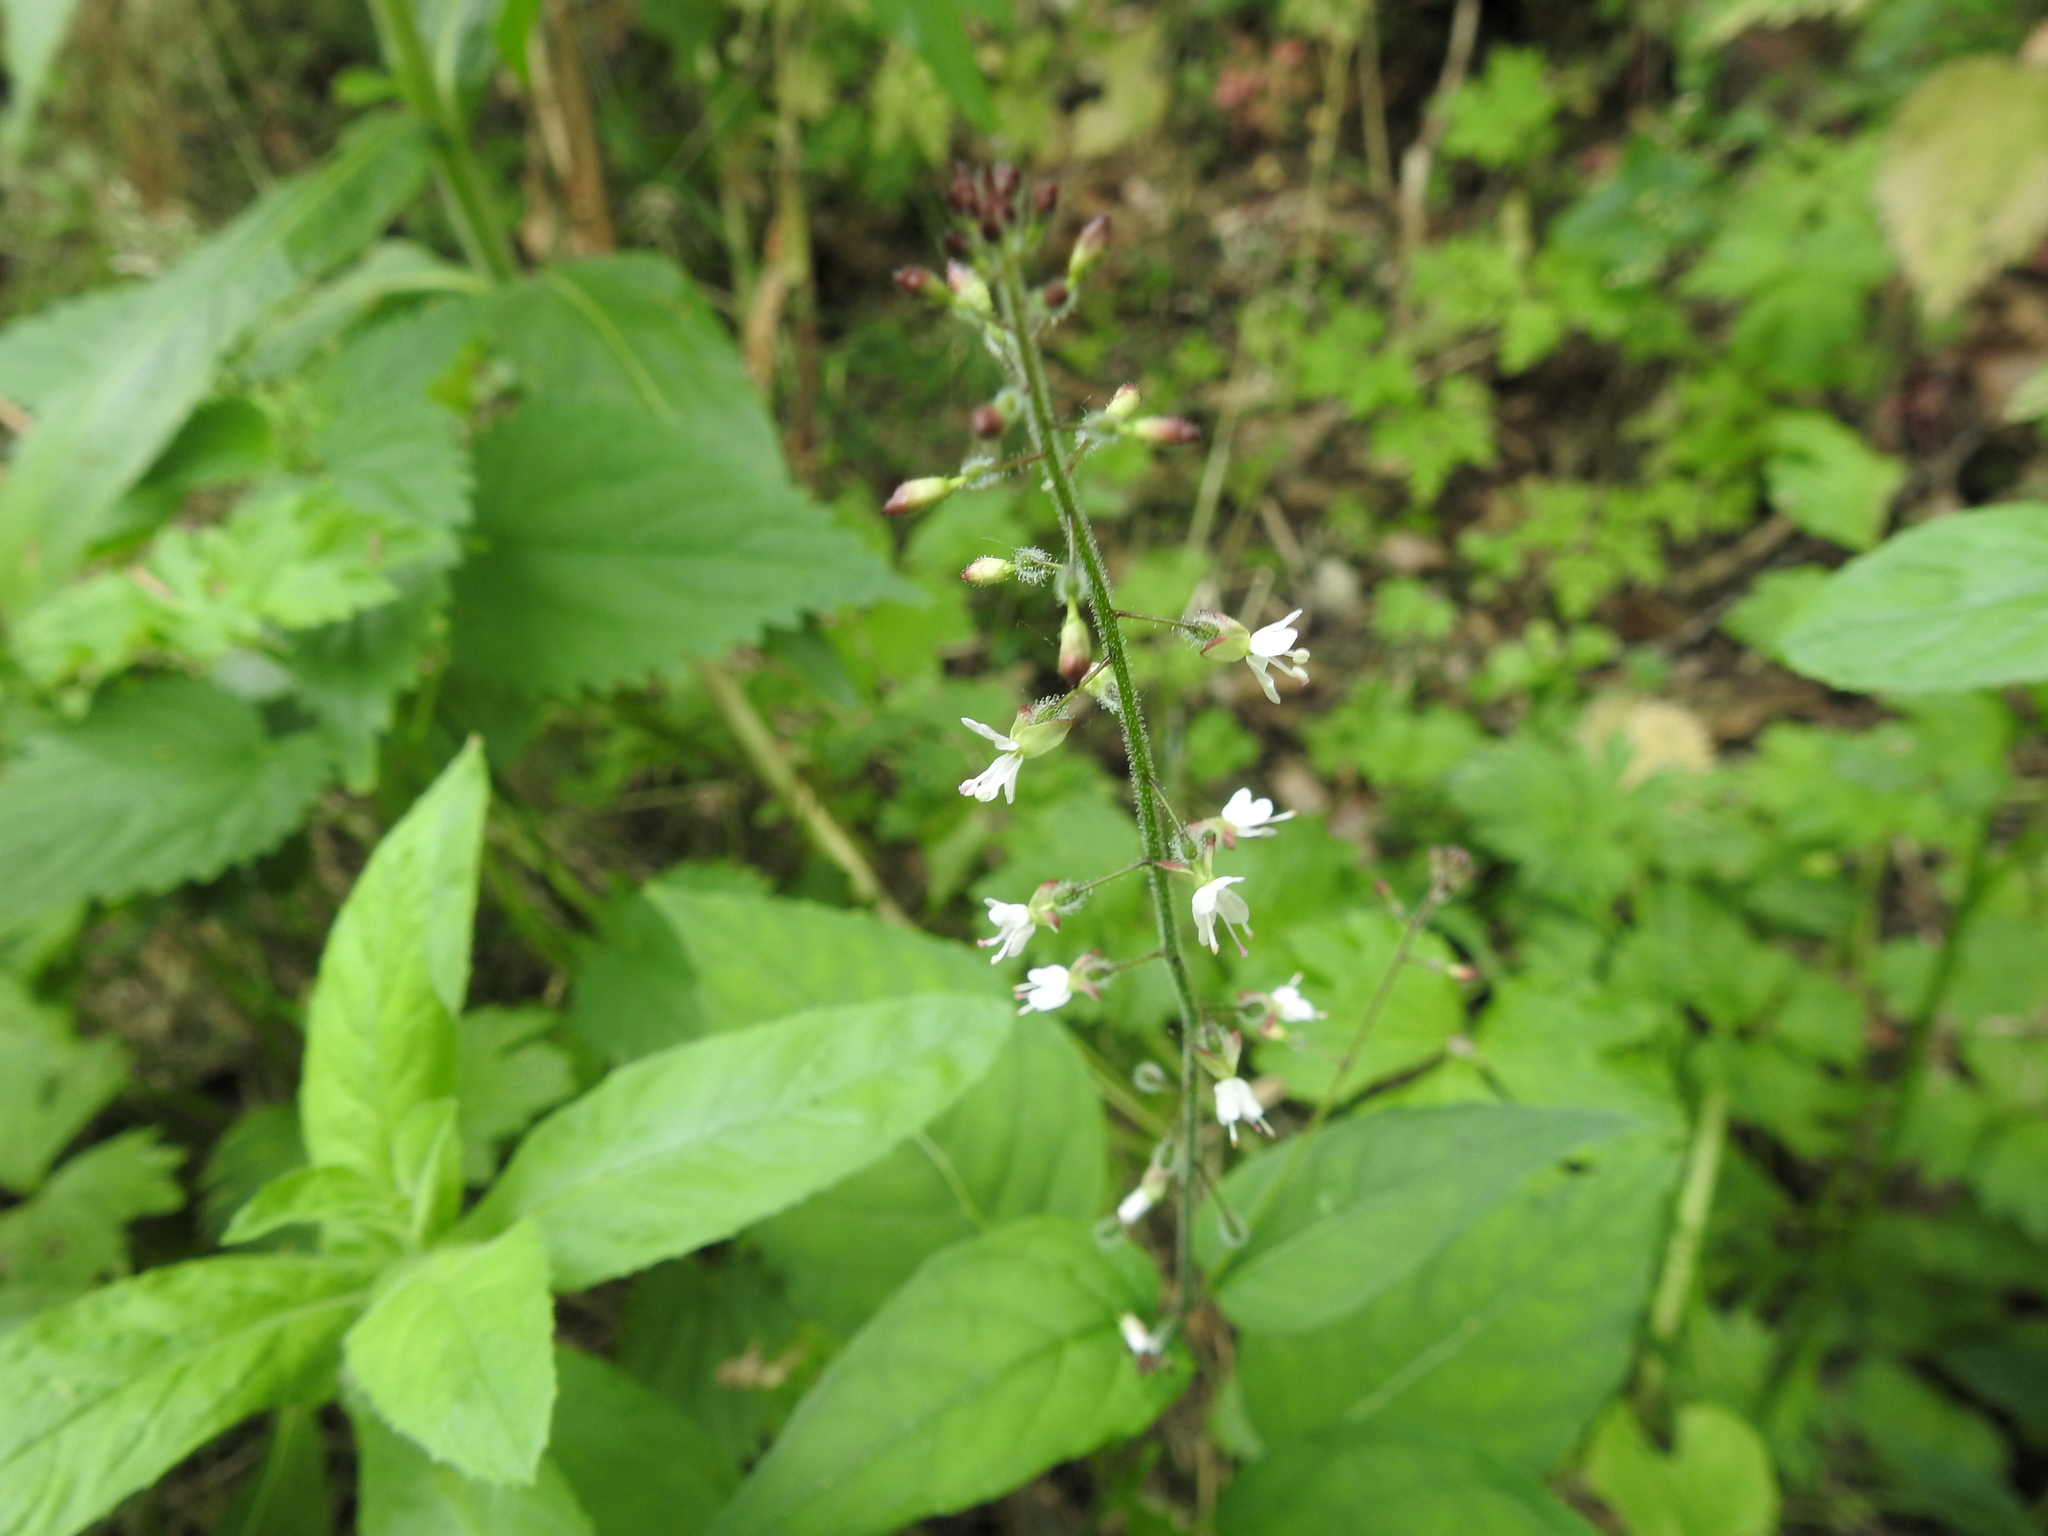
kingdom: Plantae
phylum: Tracheophyta
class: Magnoliopsida
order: Myrtales
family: Onagraceae
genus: Circaea
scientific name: Circaea lutetiana
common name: Enchanter's-nightshade
